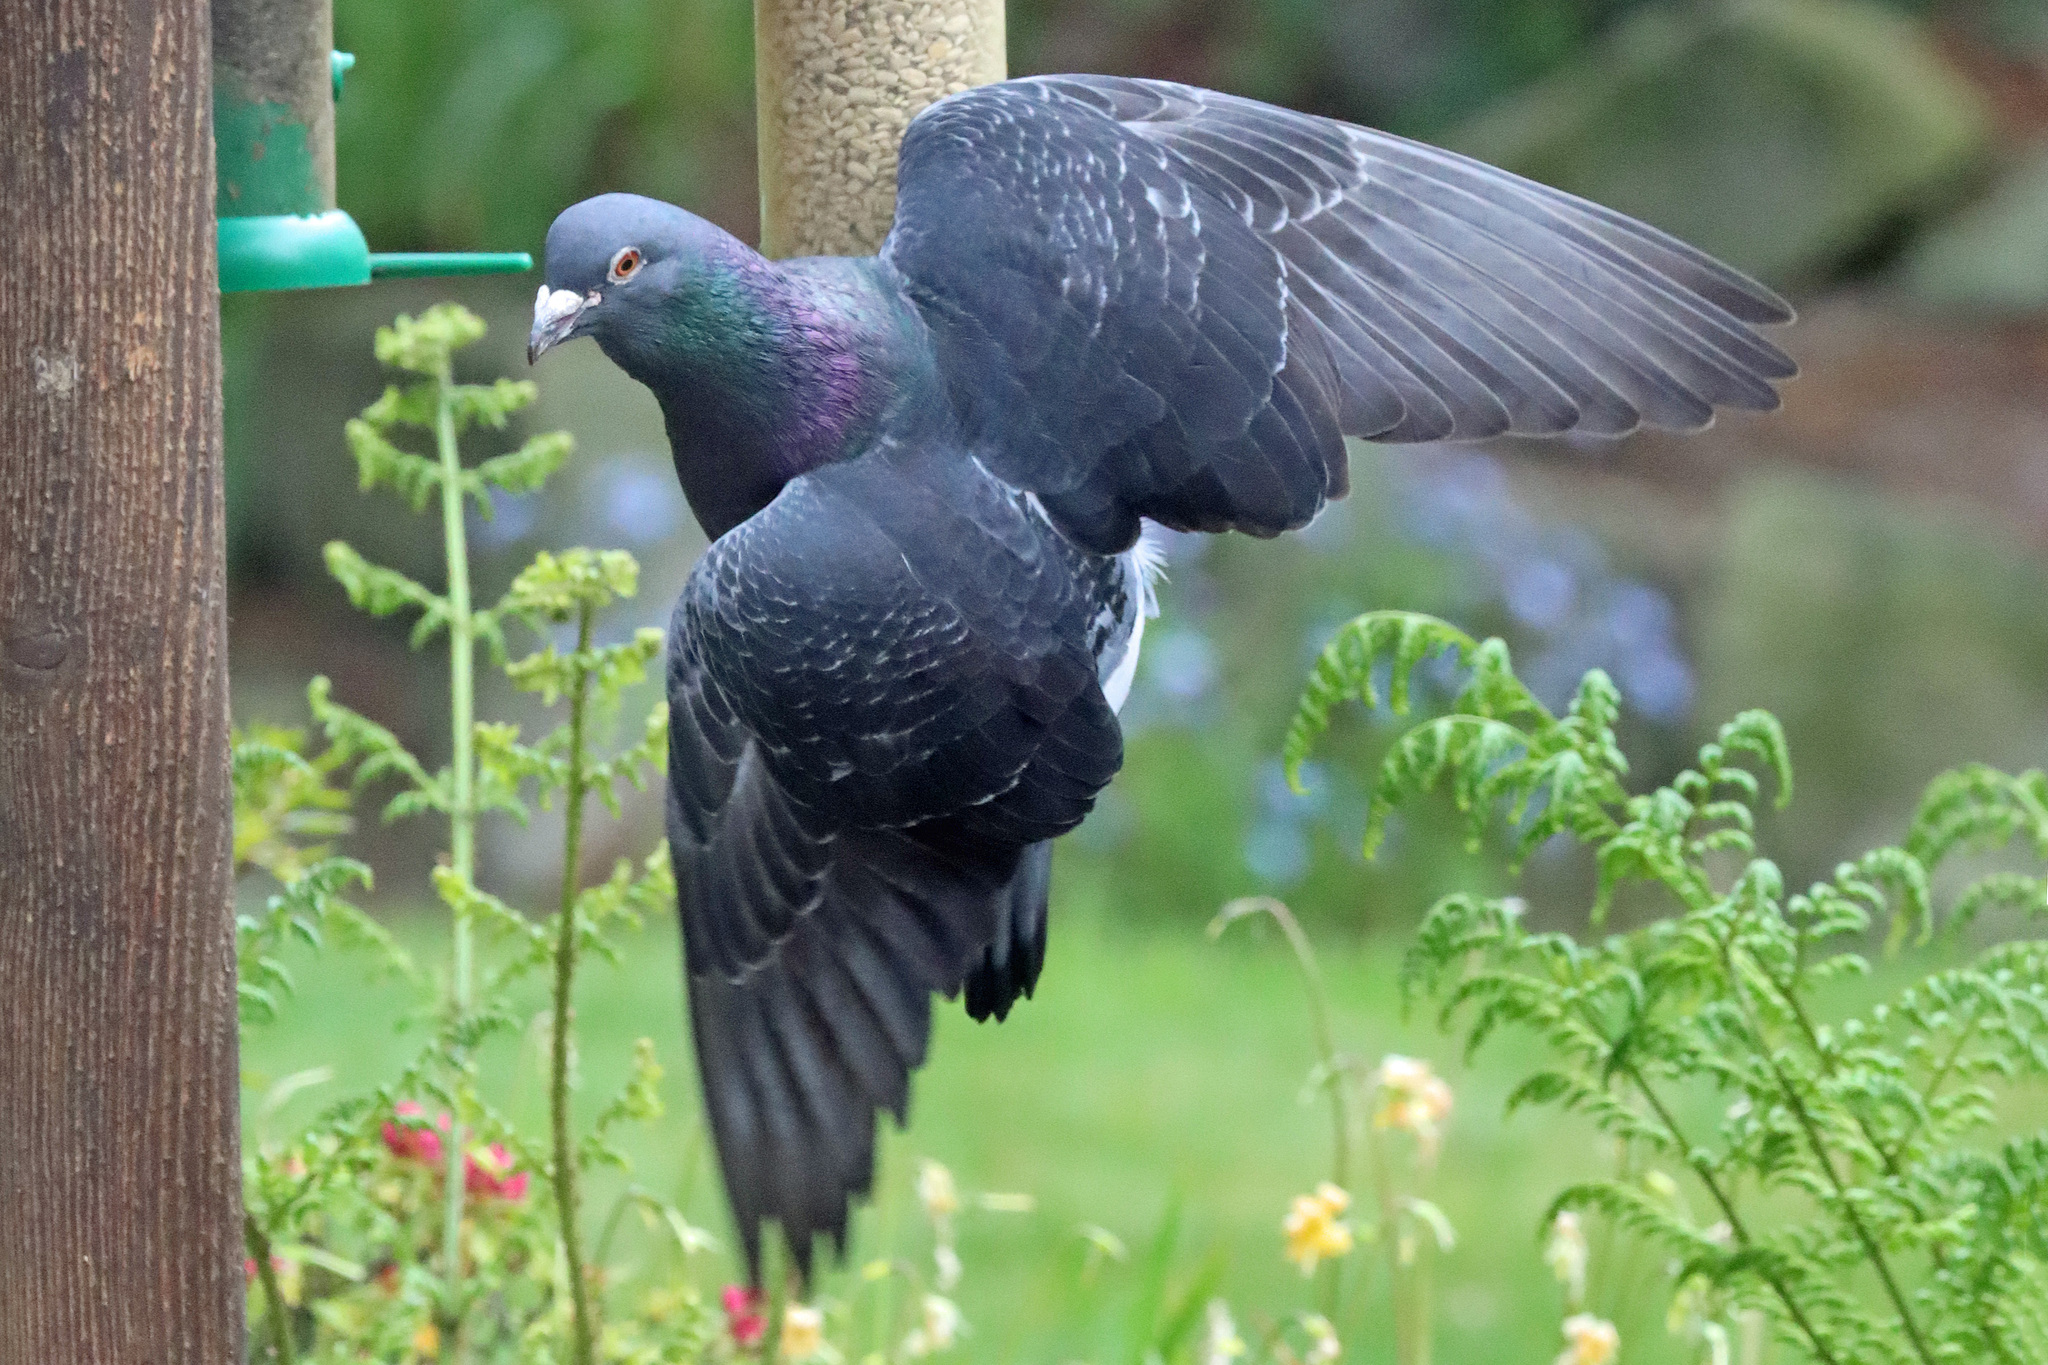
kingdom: Animalia
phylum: Chordata
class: Aves
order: Columbiformes
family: Columbidae
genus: Columba
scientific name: Columba livia
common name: Rock pigeon
